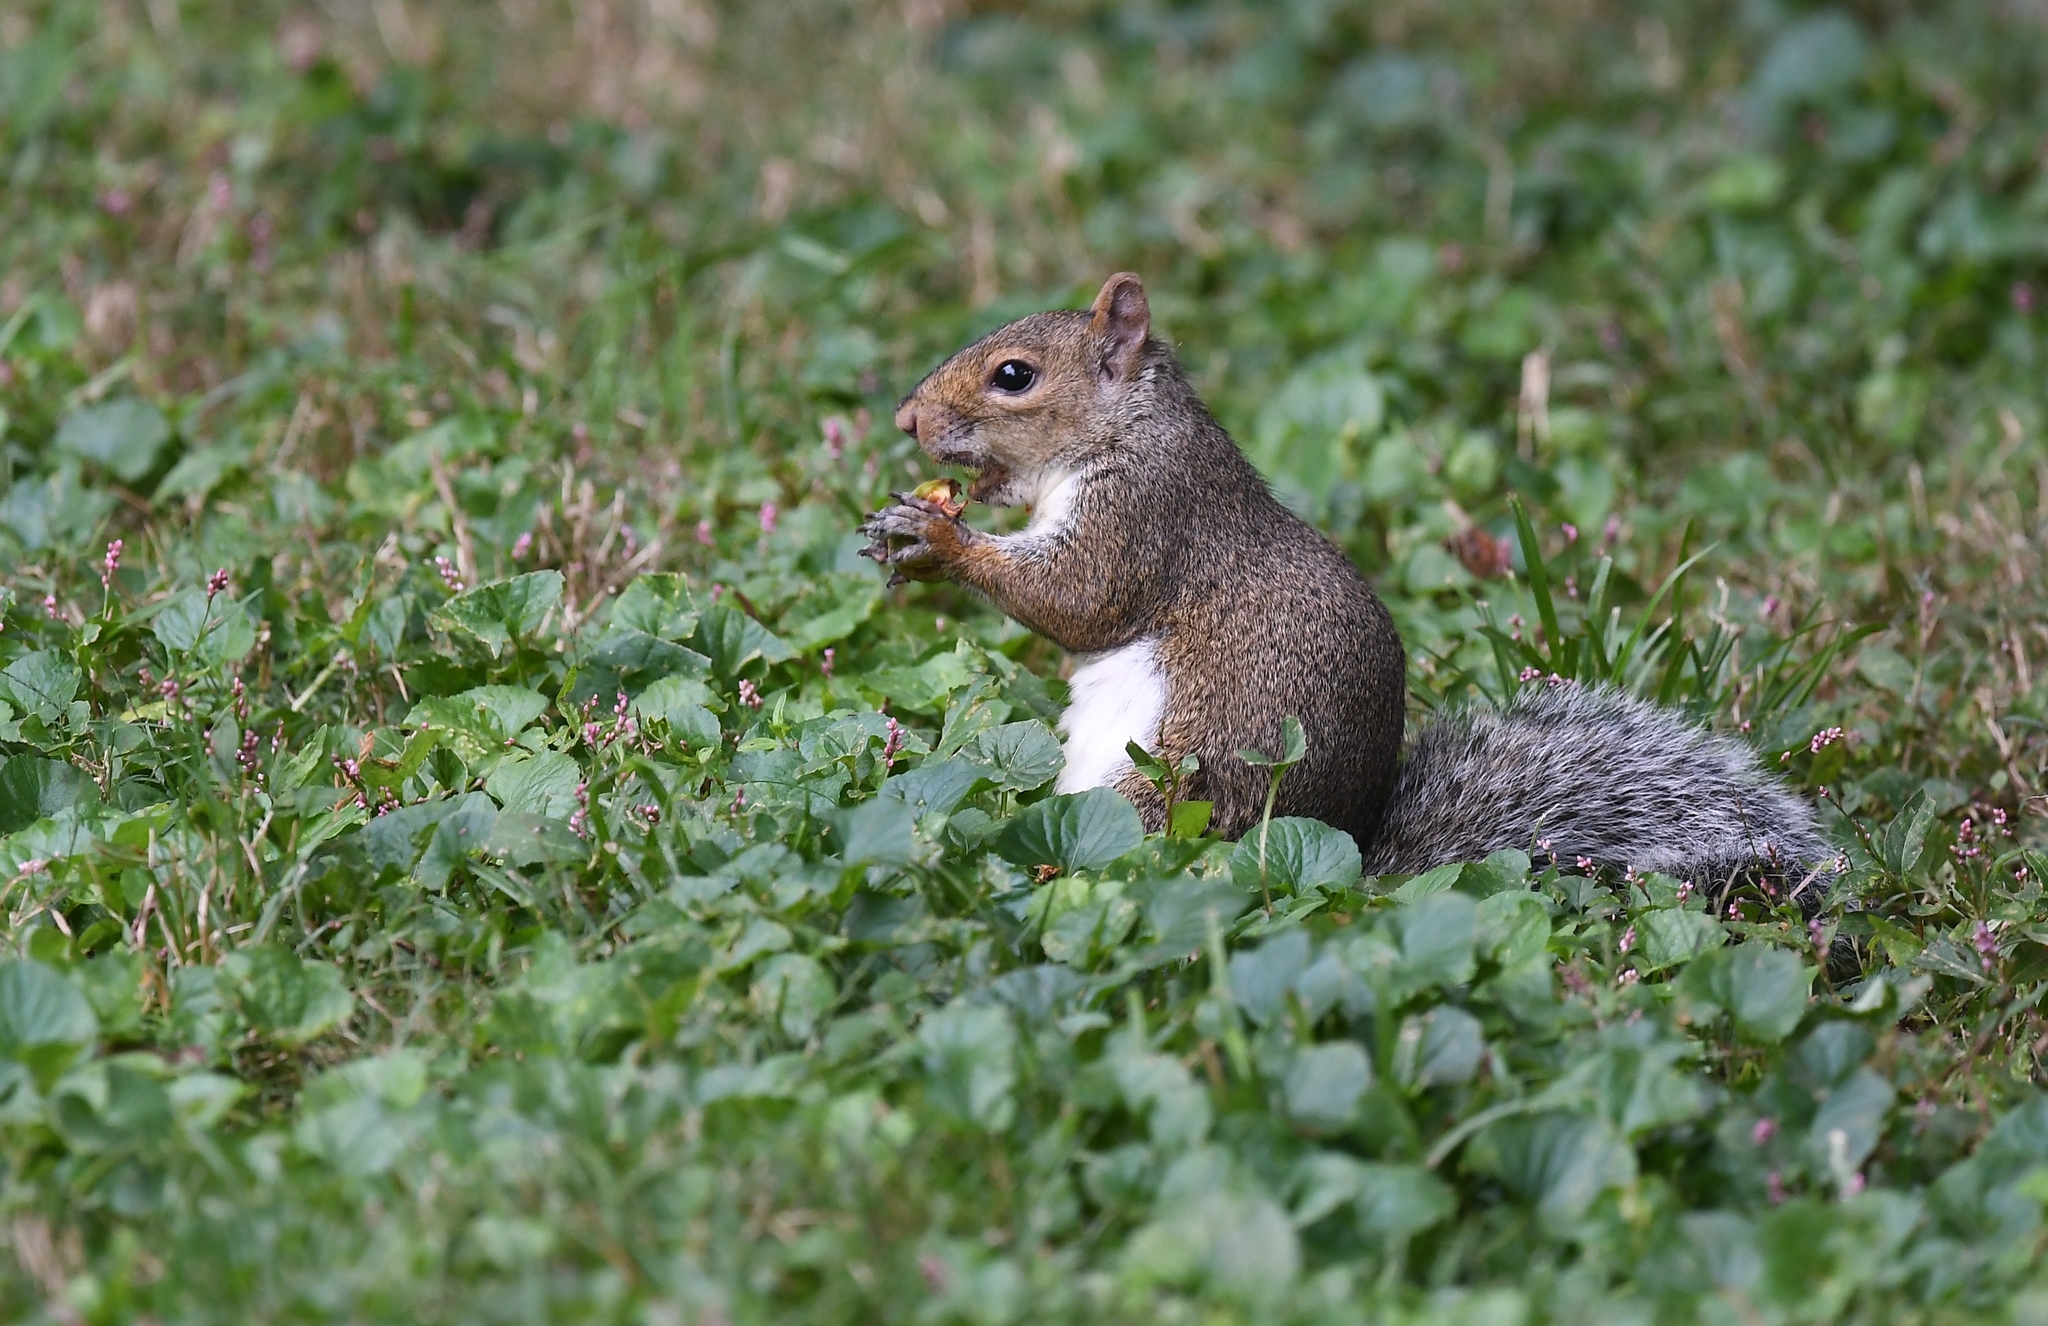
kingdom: Animalia
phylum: Chordata
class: Mammalia
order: Rodentia
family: Sciuridae
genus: Sciurus
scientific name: Sciurus carolinensis
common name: Eastern gray squirrel
